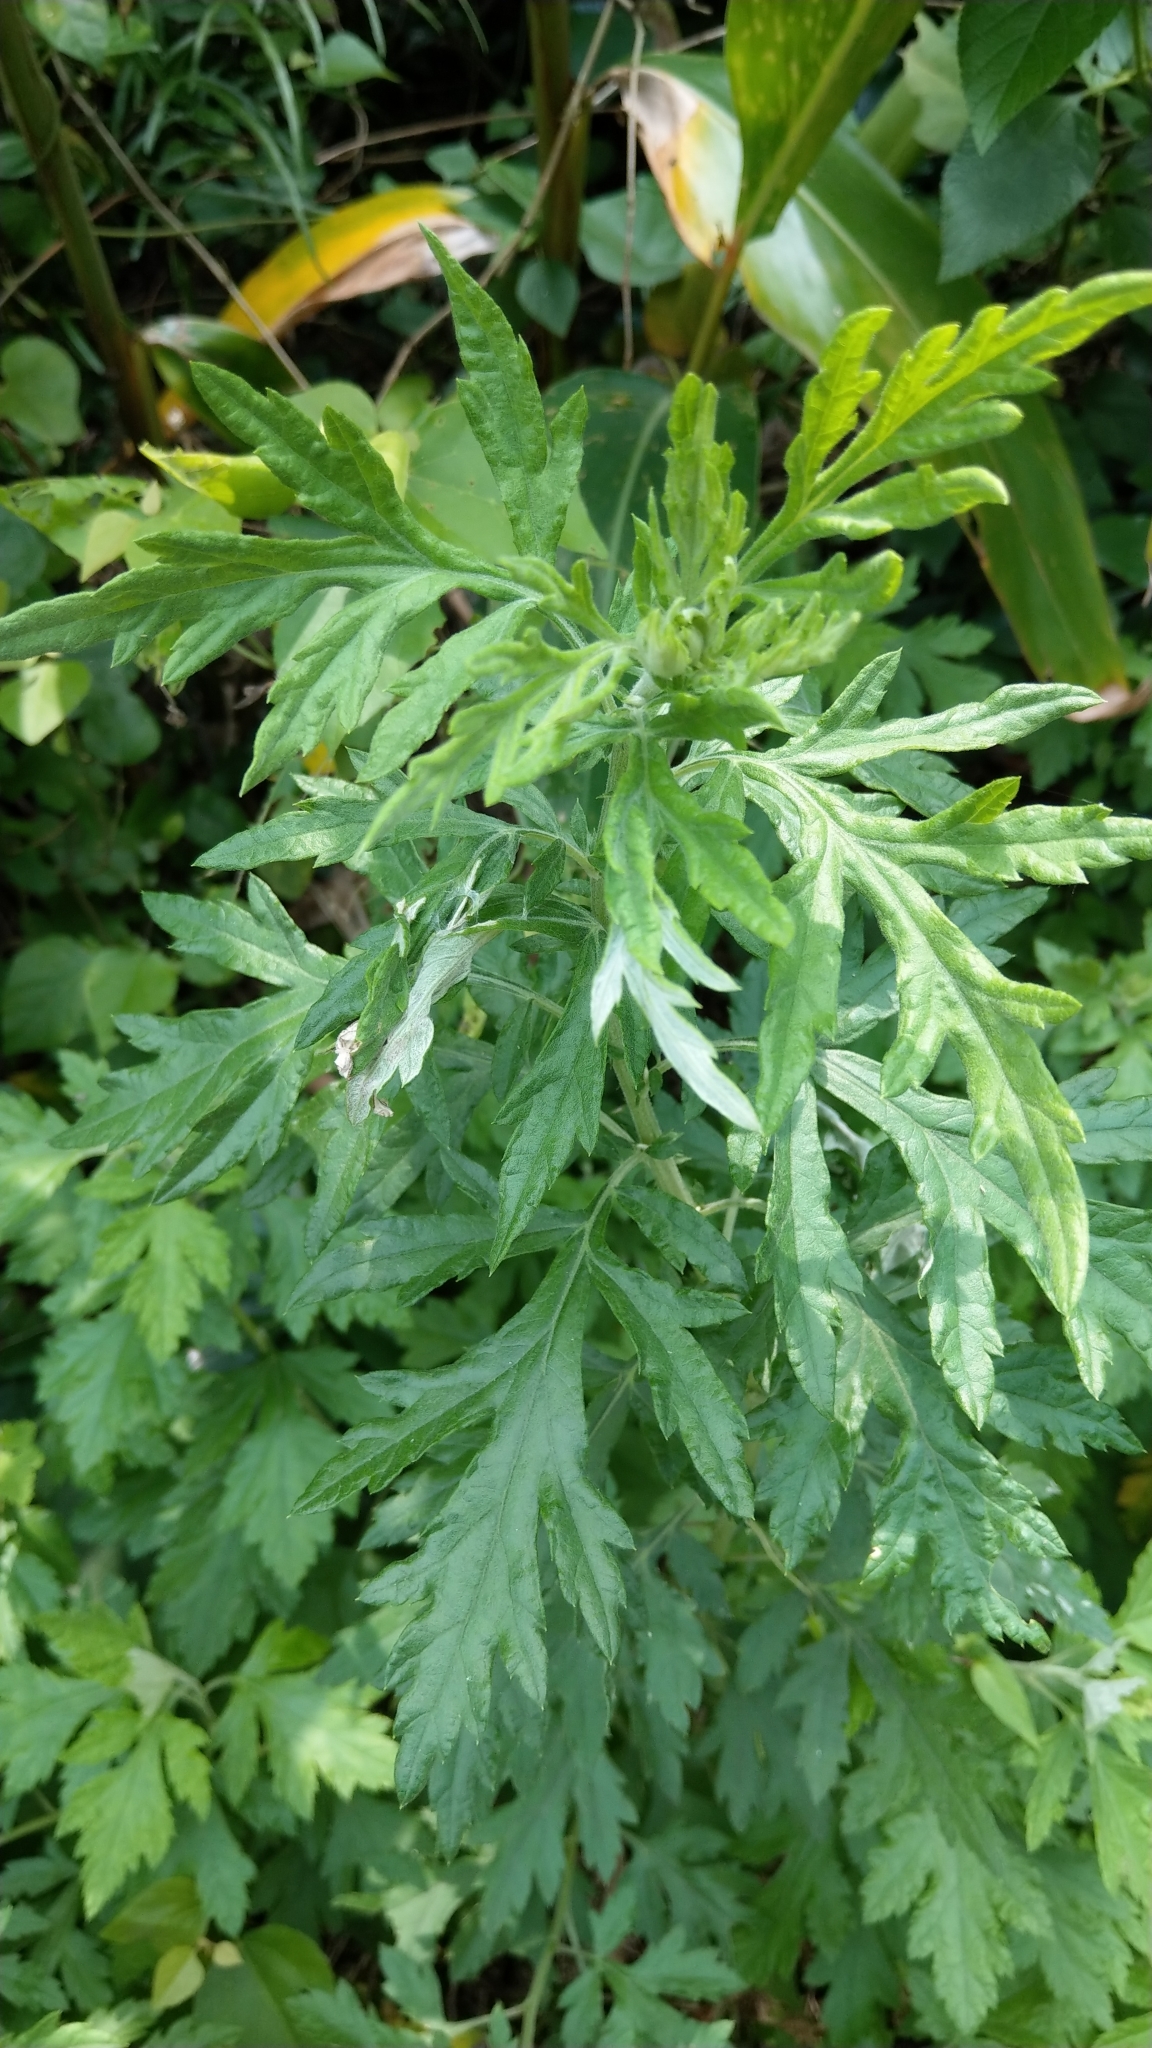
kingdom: Plantae
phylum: Tracheophyta
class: Magnoliopsida
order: Asterales
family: Asteraceae
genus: Artemisia
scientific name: Artemisia indica
